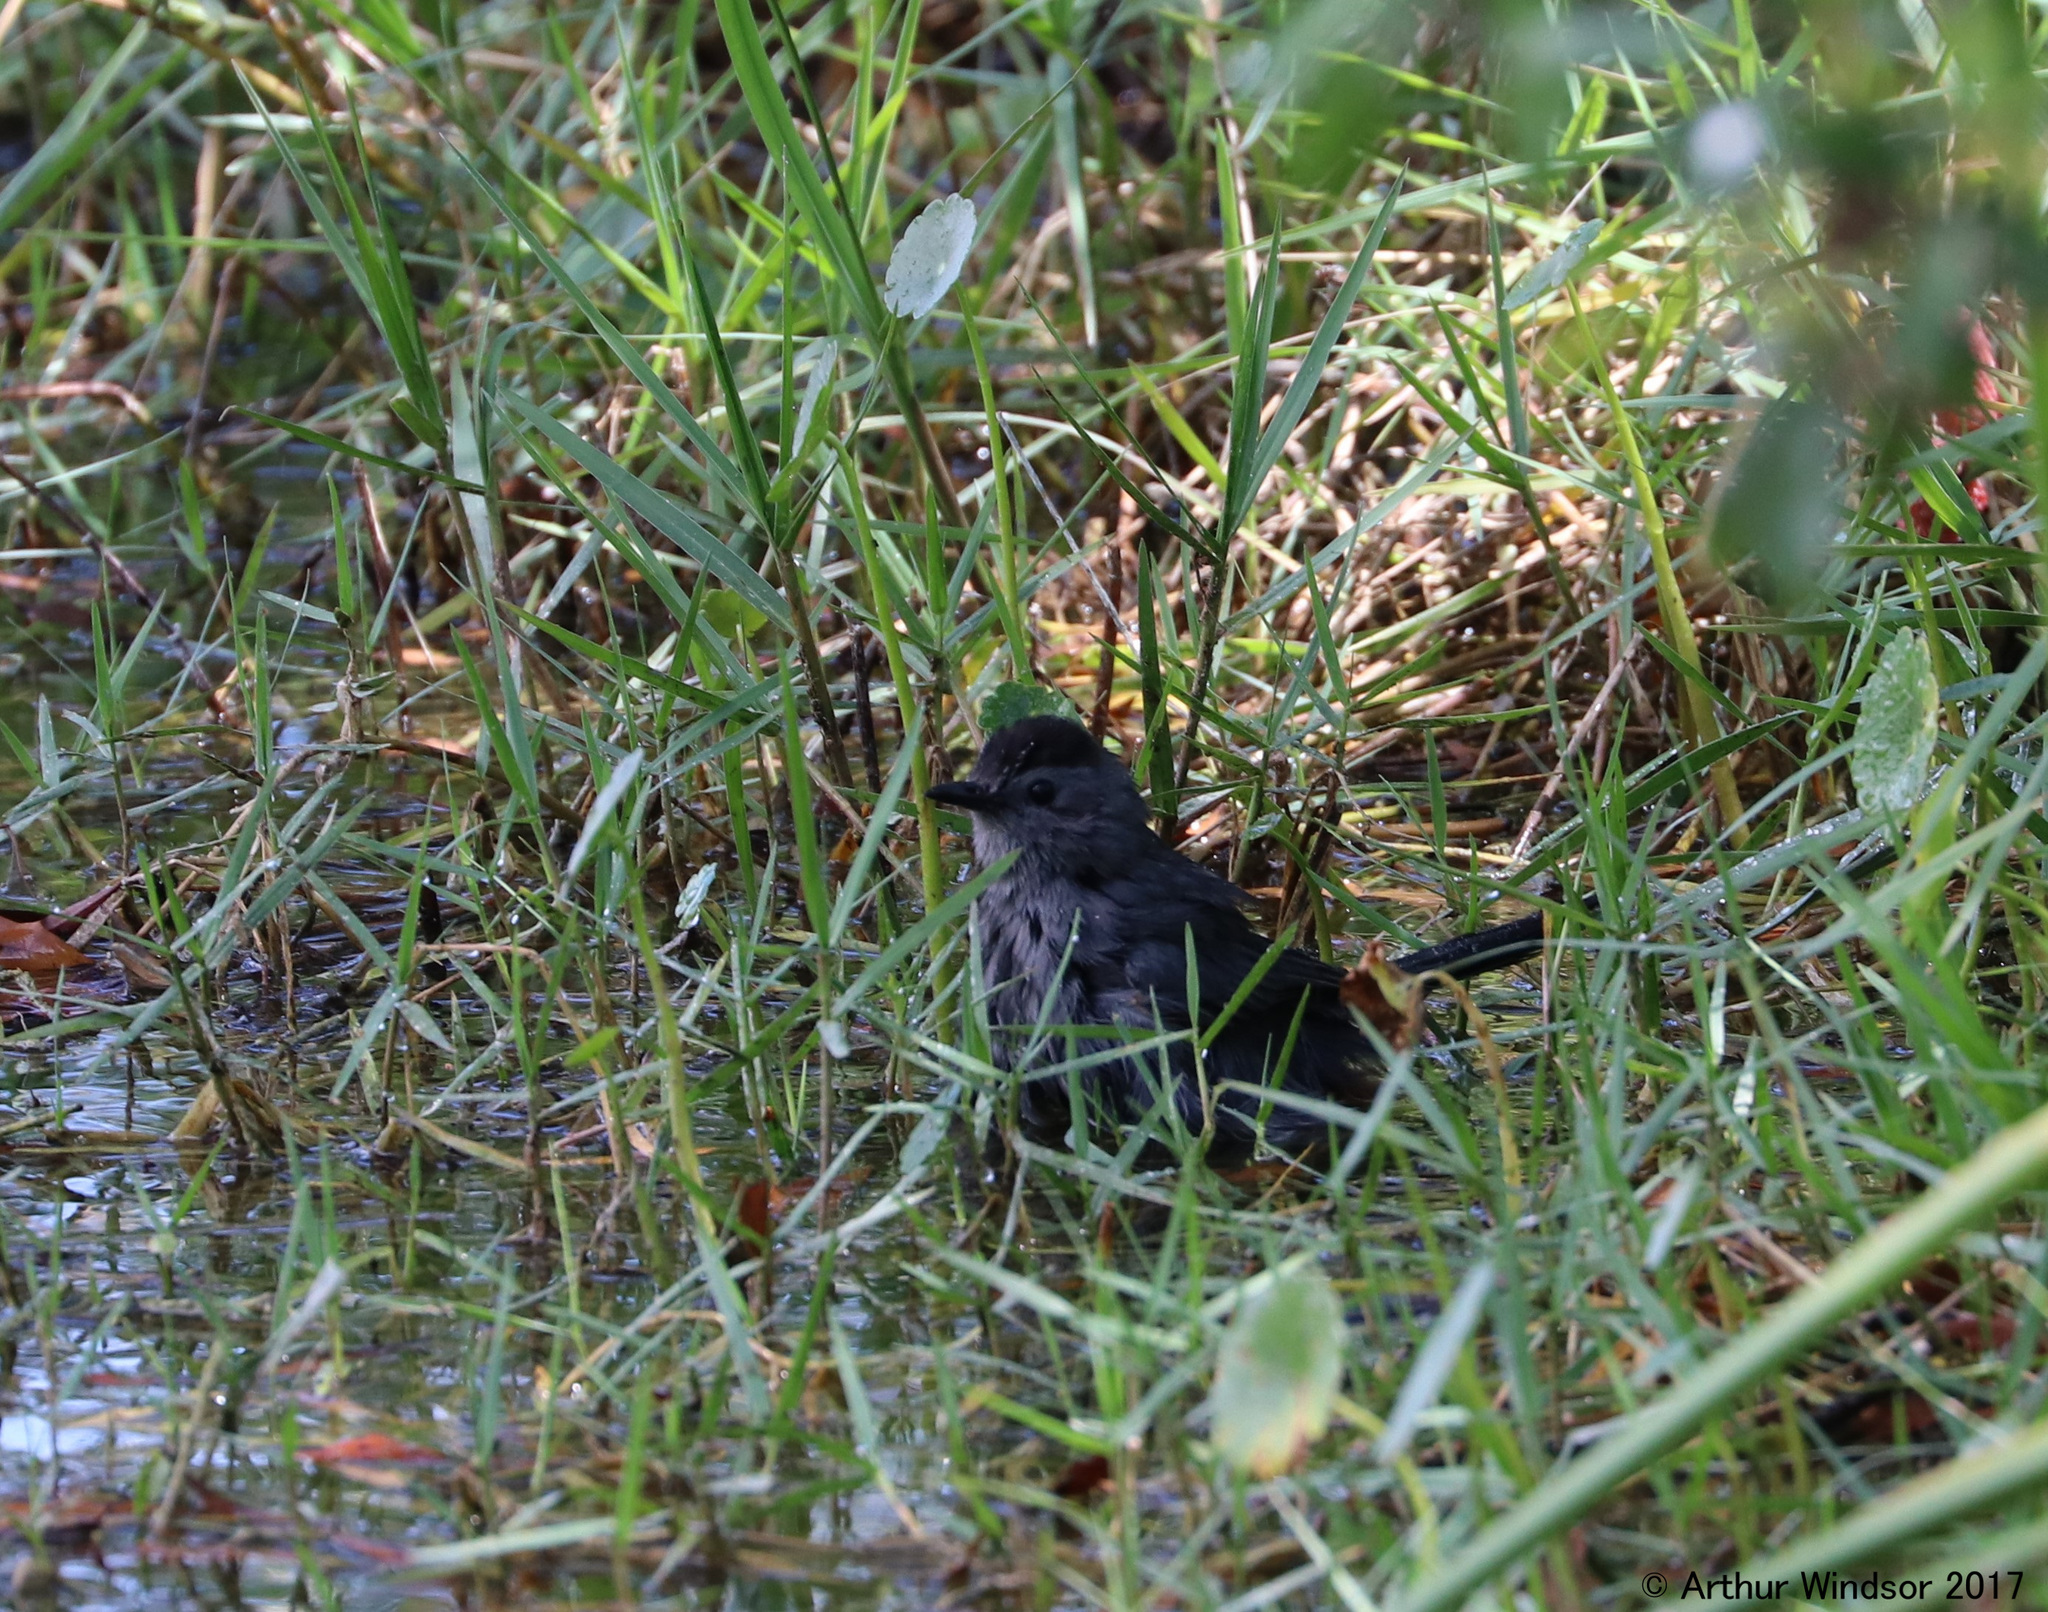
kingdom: Animalia
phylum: Chordata
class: Aves
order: Passeriformes
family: Mimidae
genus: Dumetella
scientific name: Dumetella carolinensis
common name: Gray catbird
